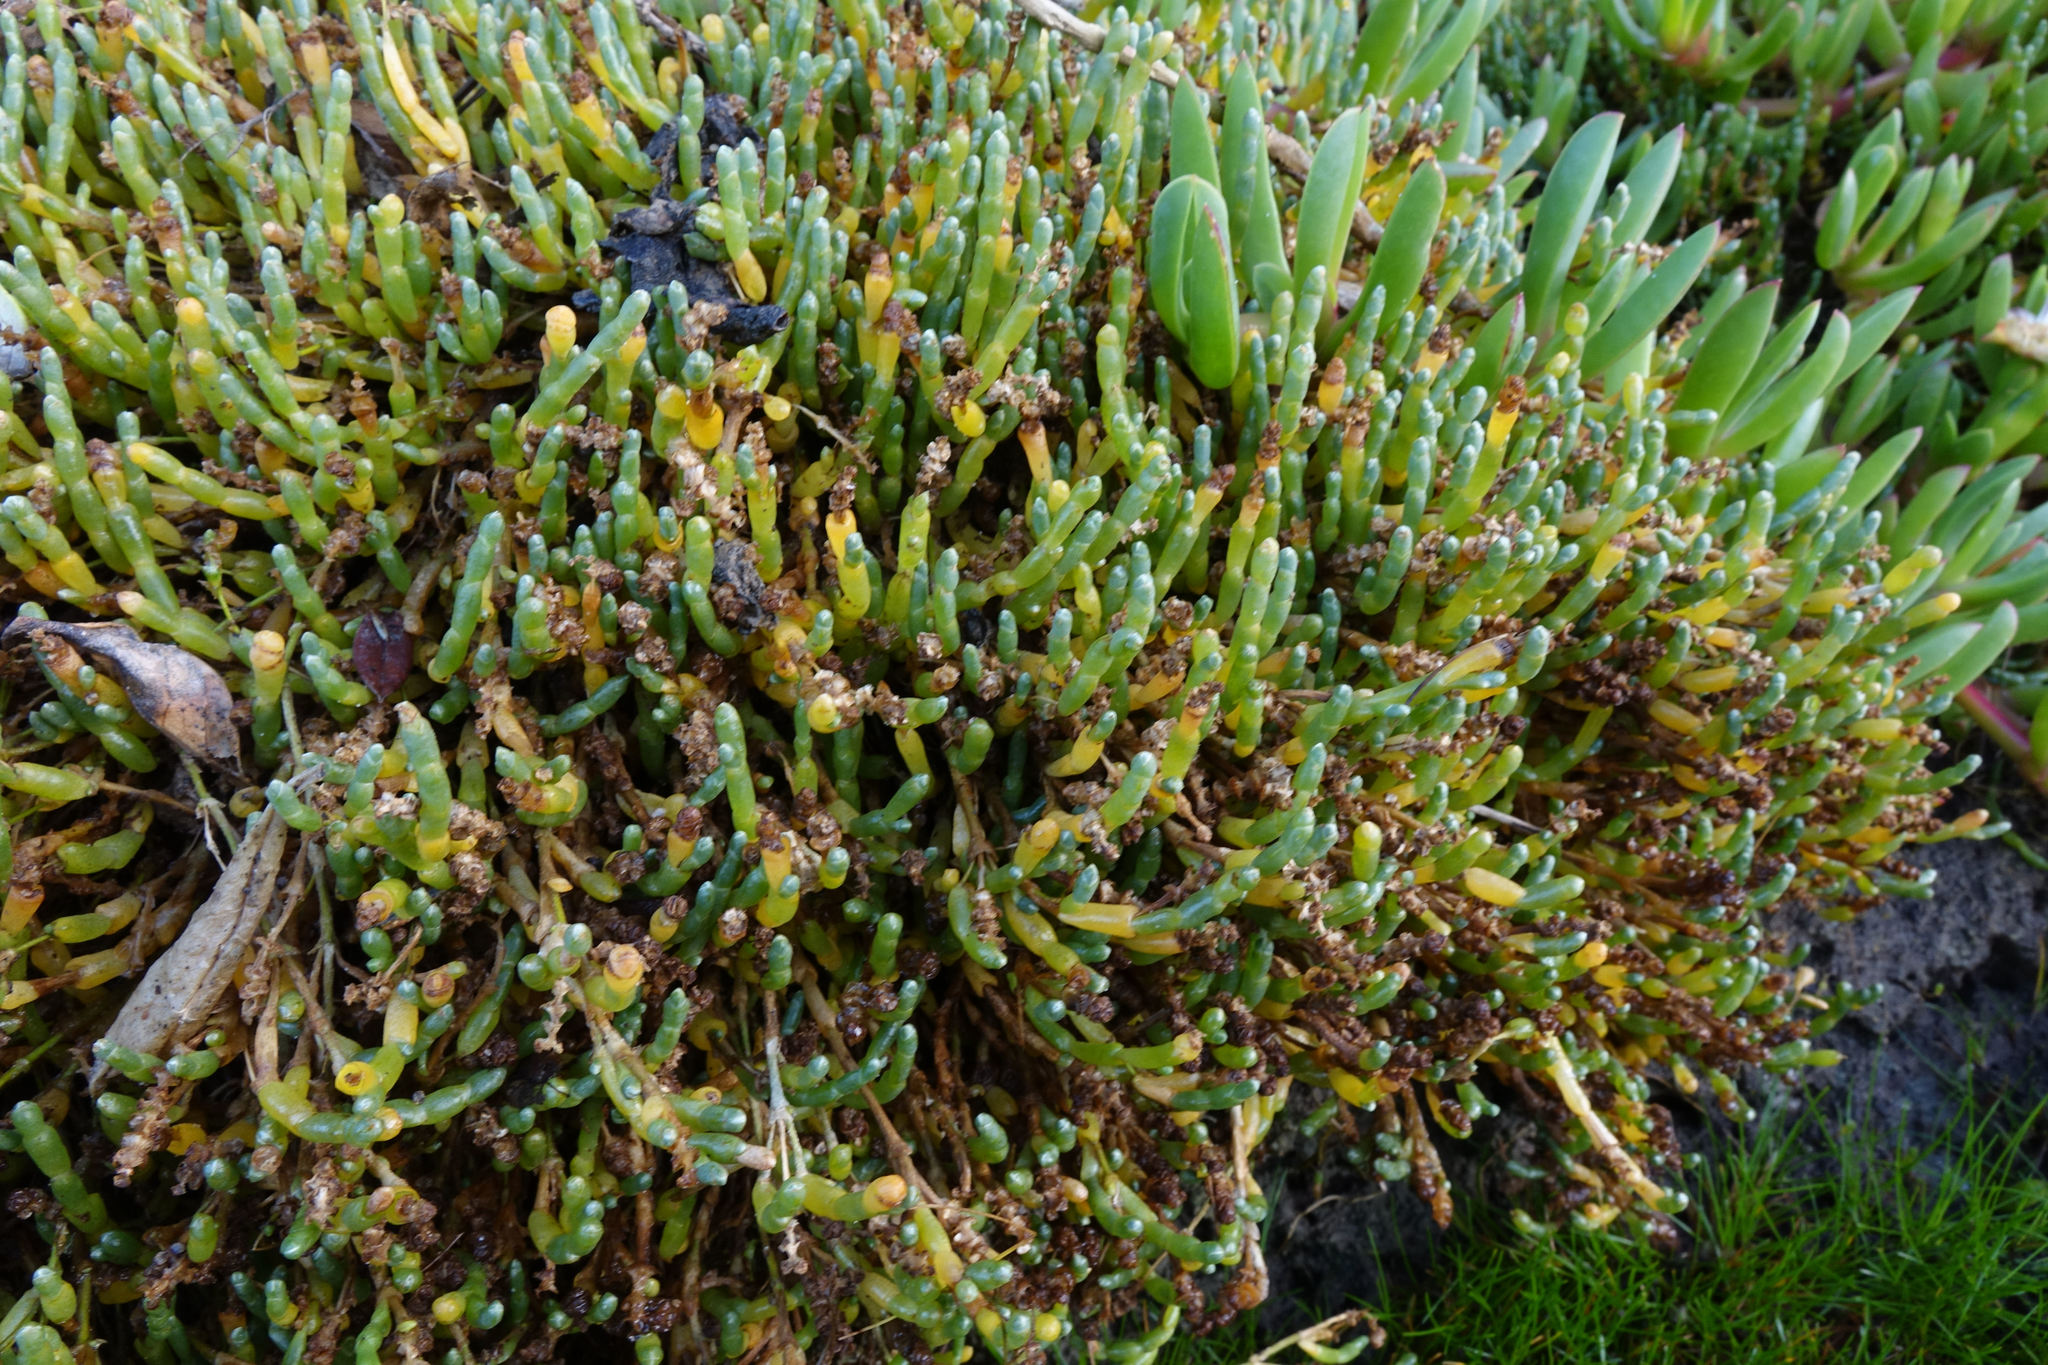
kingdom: Plantae
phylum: Tracheophyta
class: Magnoliopsida
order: Caryophyllales
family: Amaranthaceae
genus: Salicornia
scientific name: Salicornia quinqueflora
